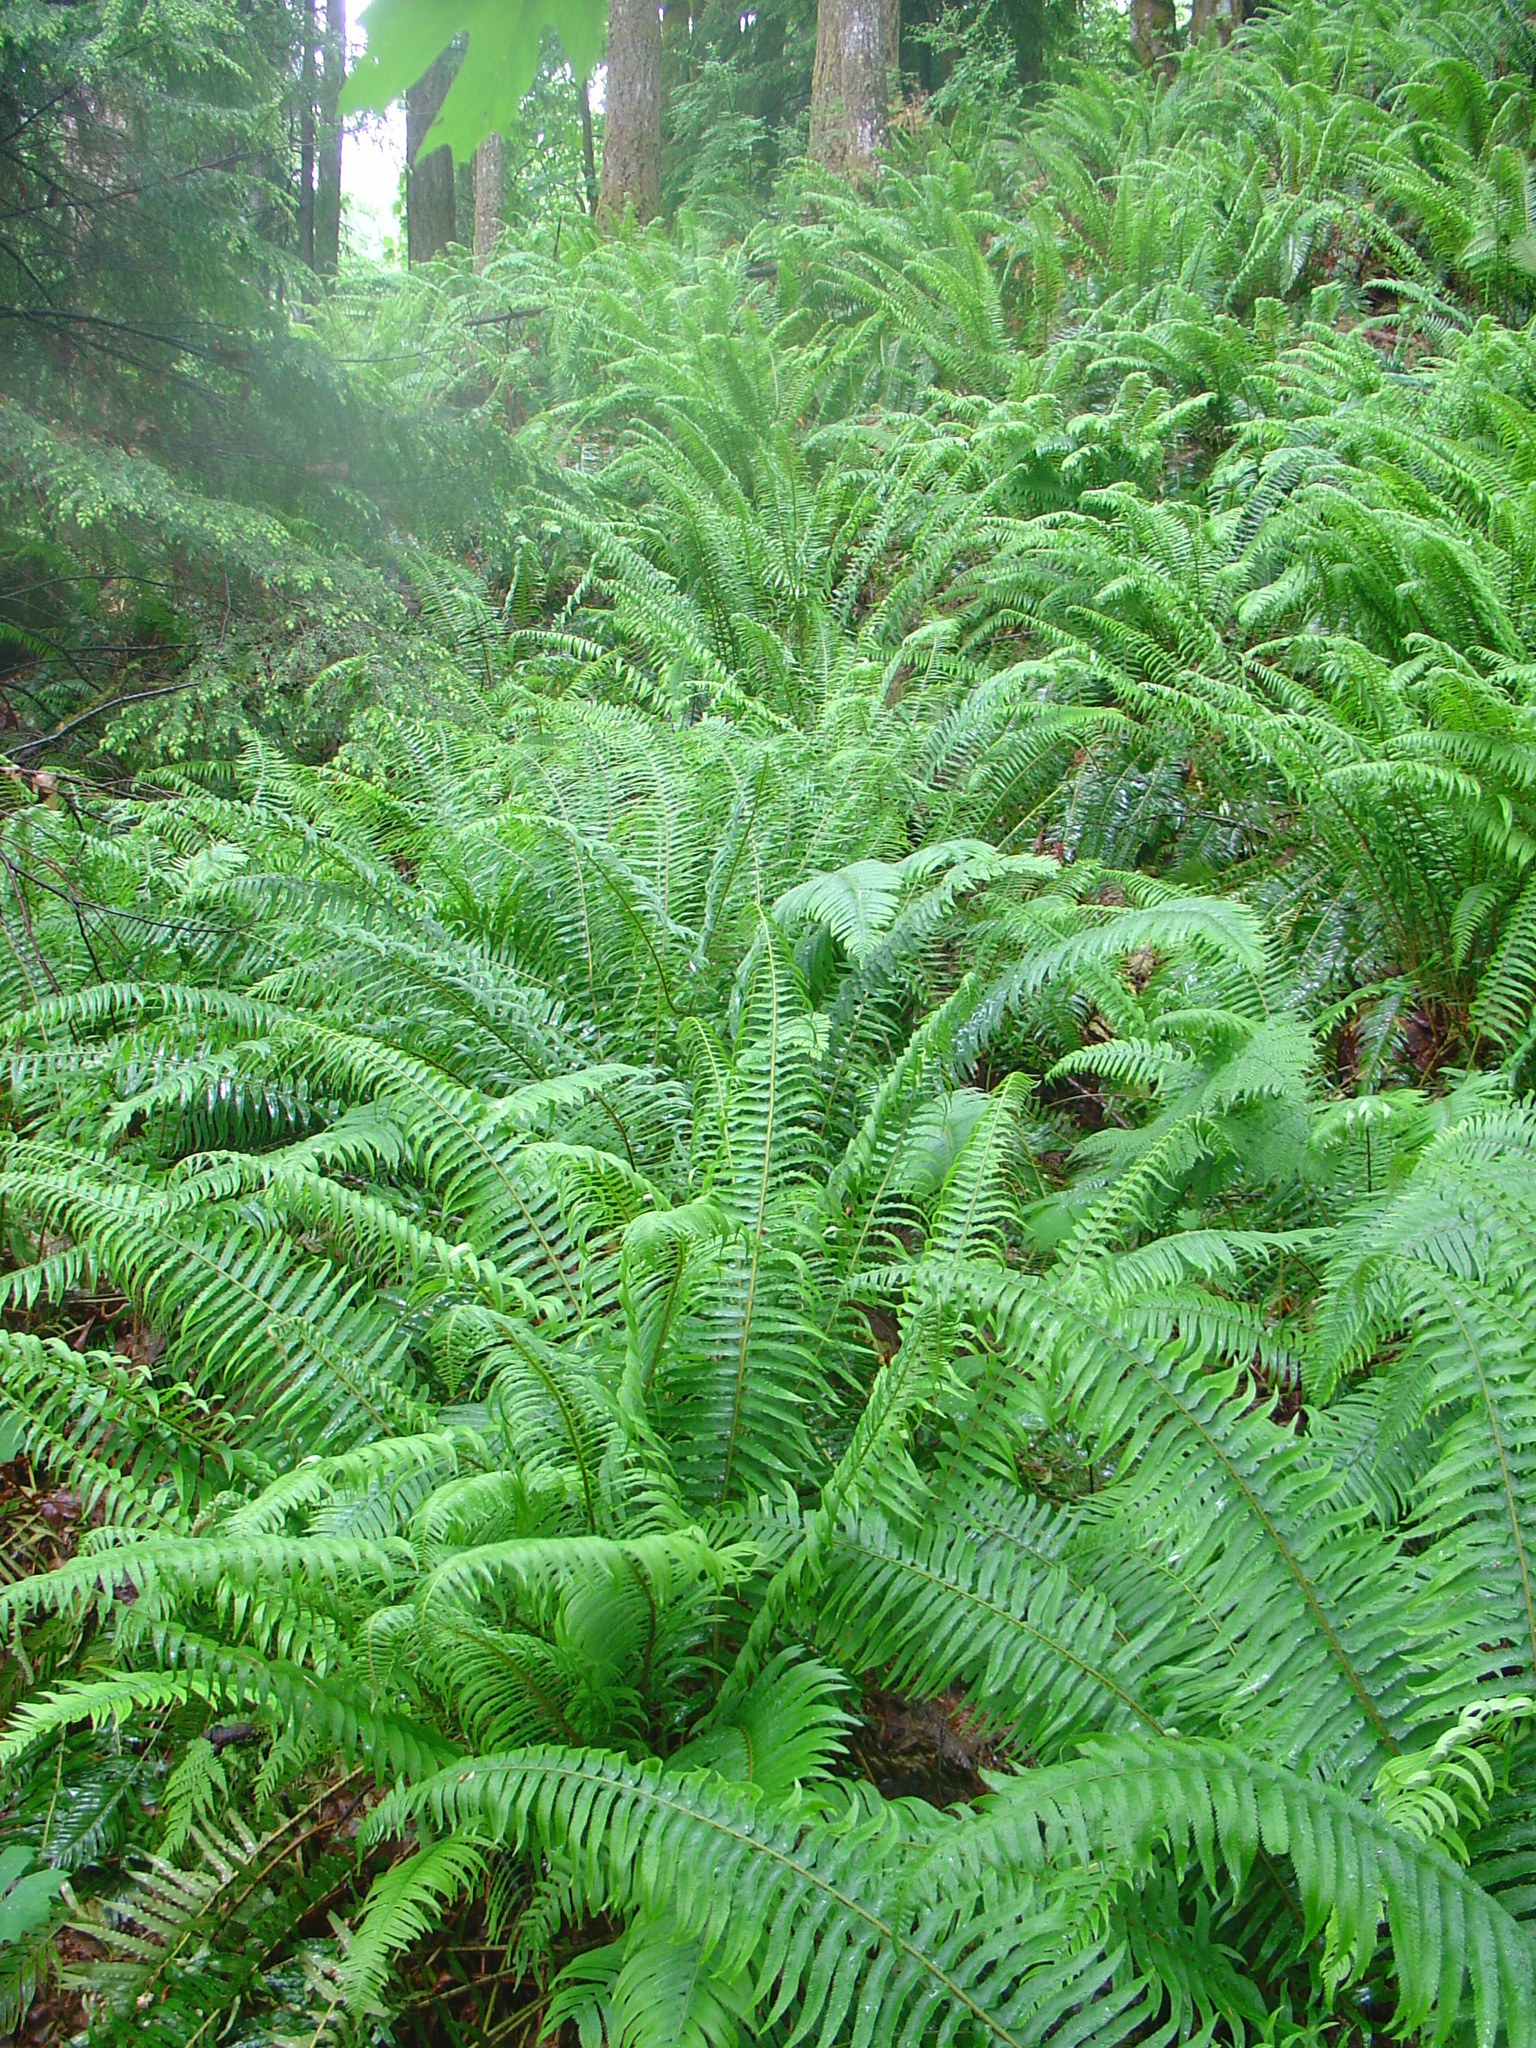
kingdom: Plantae
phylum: Tracheophyta
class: Polypodiopsida
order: Polypodiales
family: Dryopteridaceae
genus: Polystichum
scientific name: Polystichum munitum
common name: Western sword-fern
